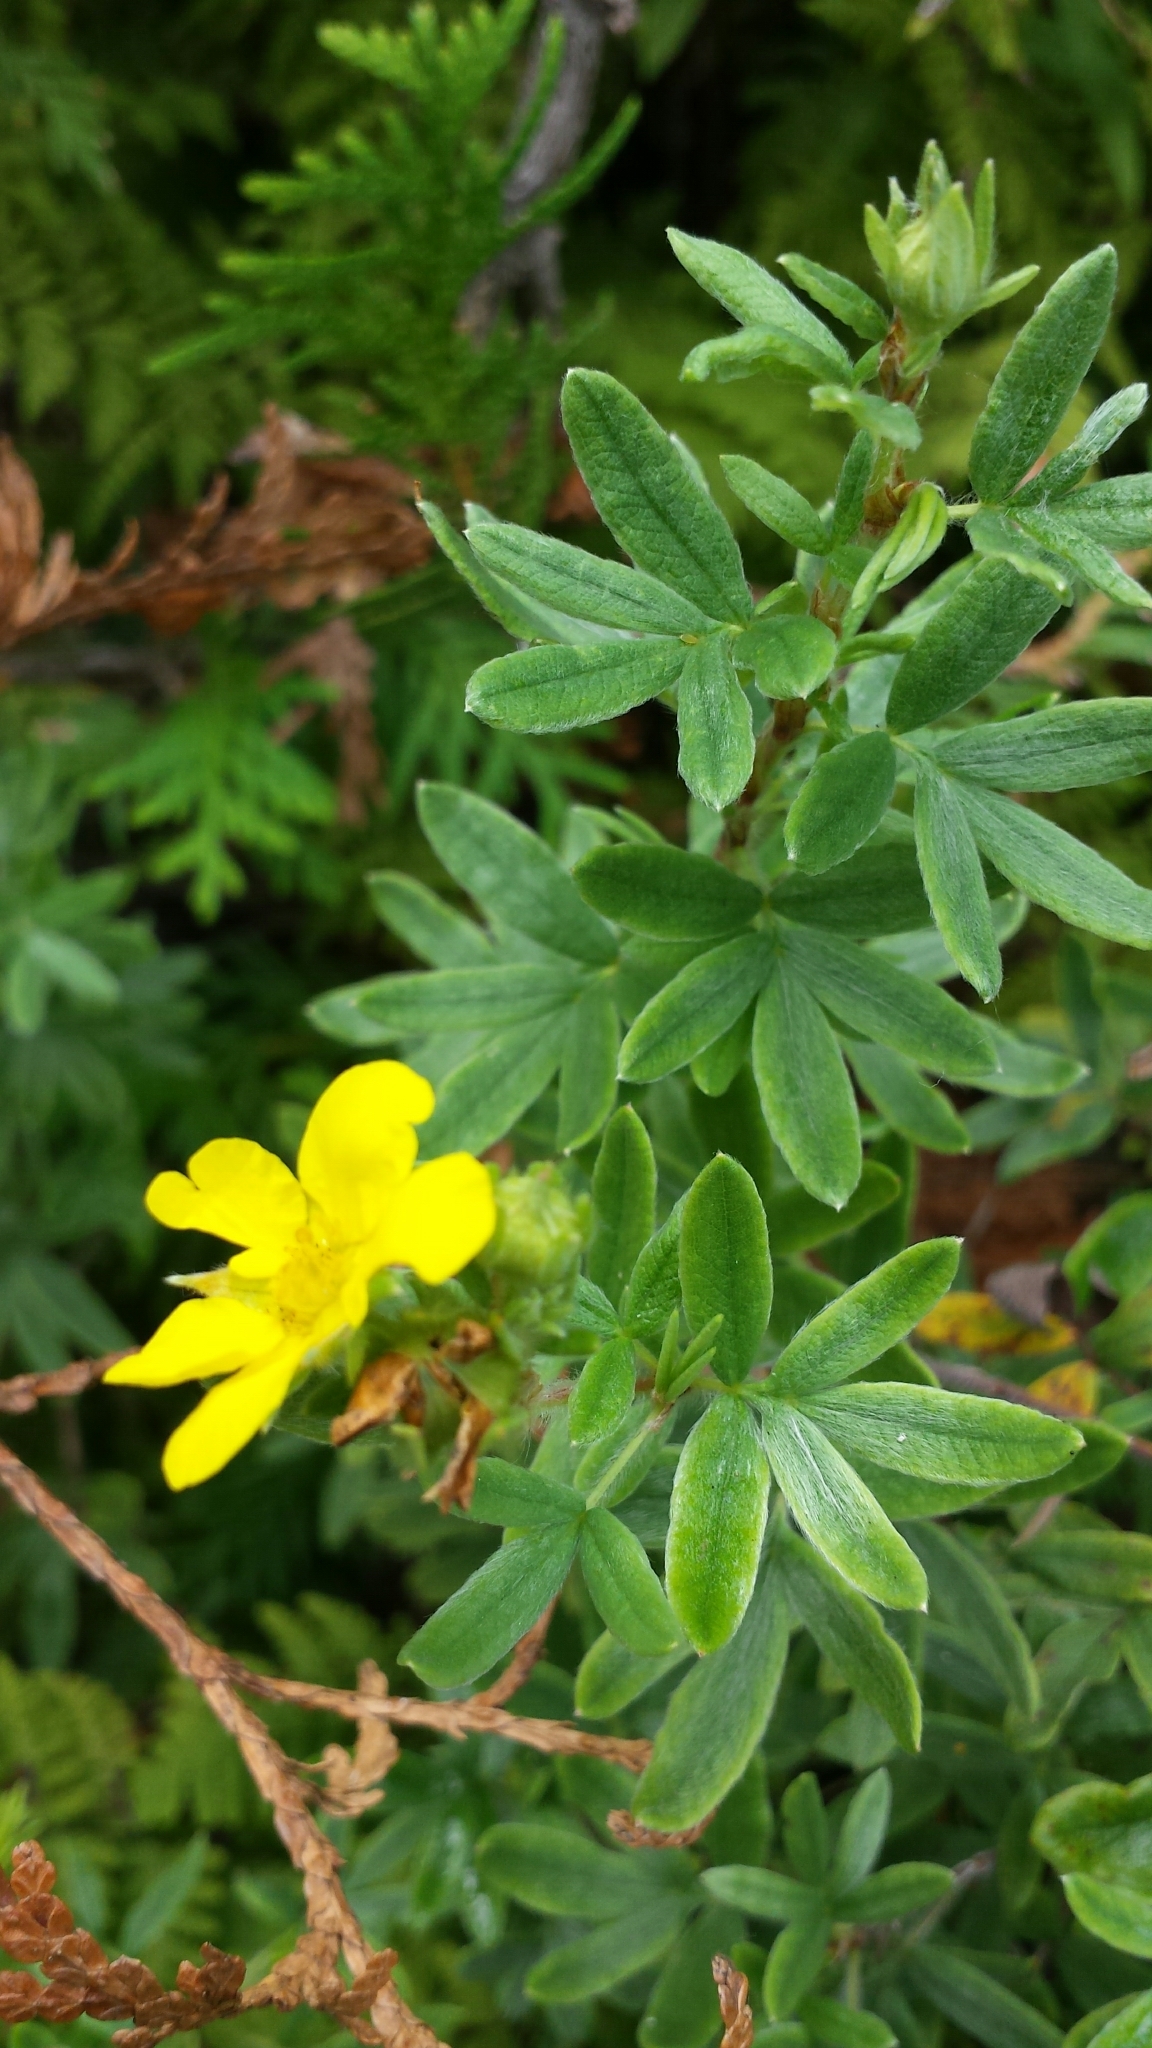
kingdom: Plantae
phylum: Tracheophyta
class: Magnoliopsida
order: Rosales
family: Rosaceae
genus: Dasiphora
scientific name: Dasiphora fruticosa
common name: Shrubby cinquefoil
